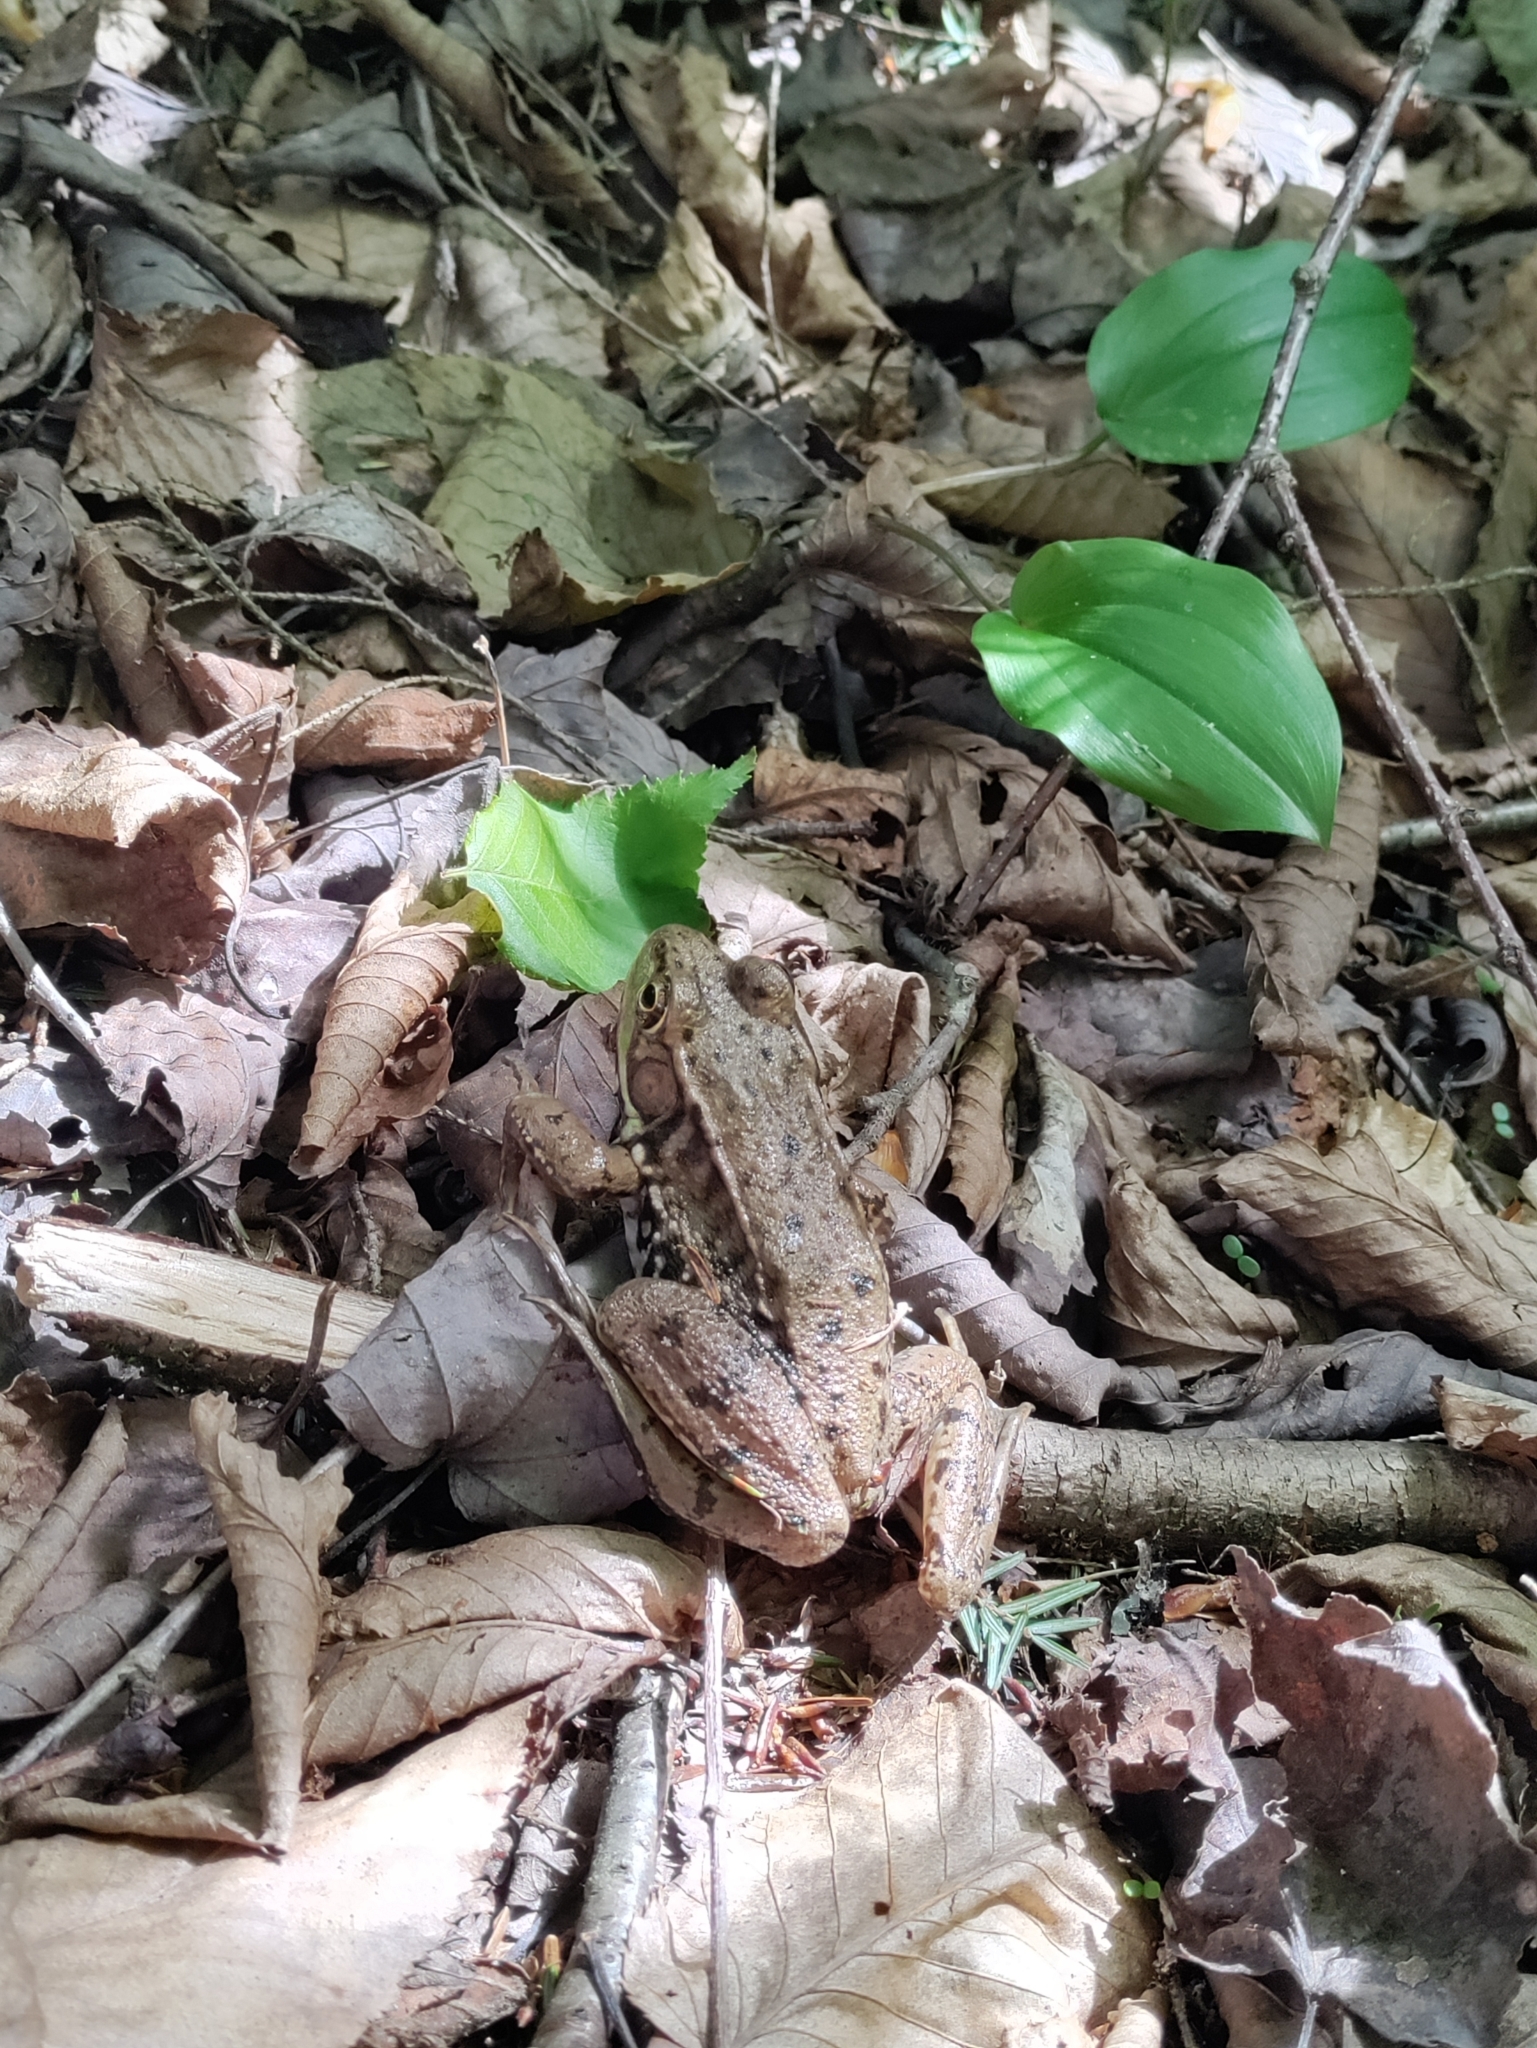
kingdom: Animalia
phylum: Chordata
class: Amphibia
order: Anura
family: Ranidae
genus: Lithobates
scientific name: Lithobates clamitans
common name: Green frog
